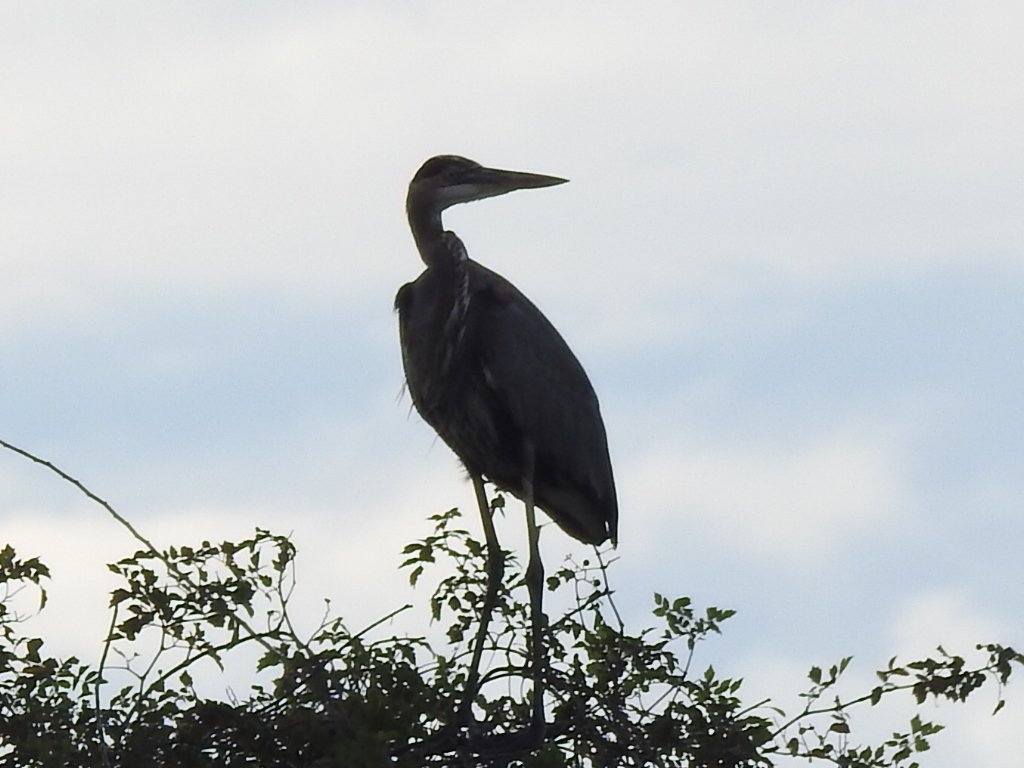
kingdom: Animalia
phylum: Chordata
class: Aves
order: Pelecaniformes
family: Ardeidae
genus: Ardea
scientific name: Ardea herodias
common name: Great blue heron
